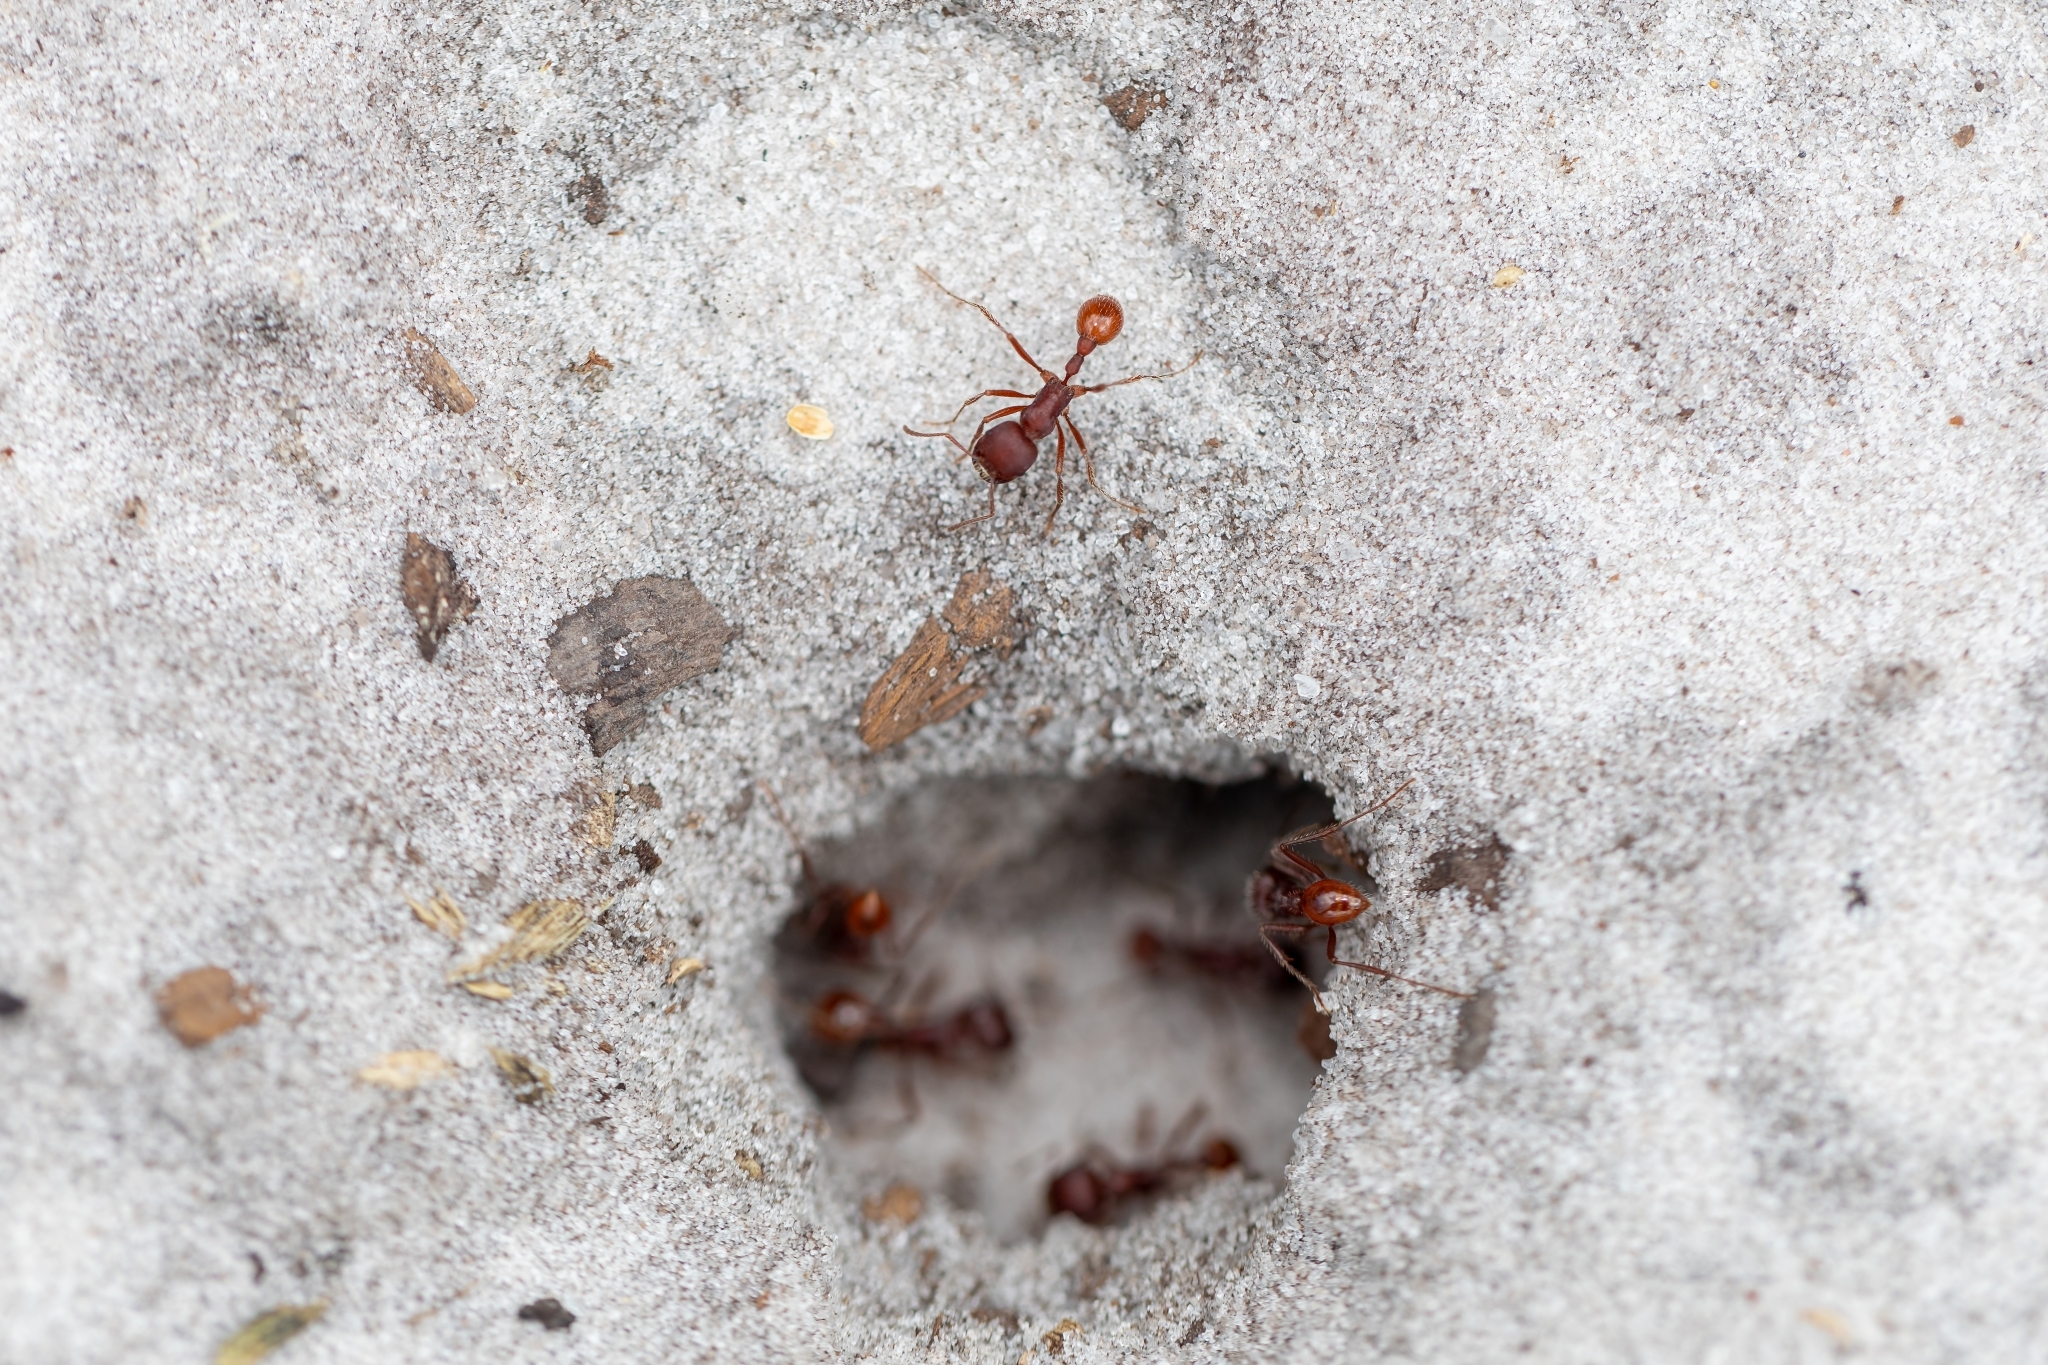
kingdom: Animalia
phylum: Arthropoda
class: Insecta
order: Hymenoptera
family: Formicidae
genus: Pogonomyrmex
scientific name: Pogonomyrmex badius
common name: Florida harvester ant
